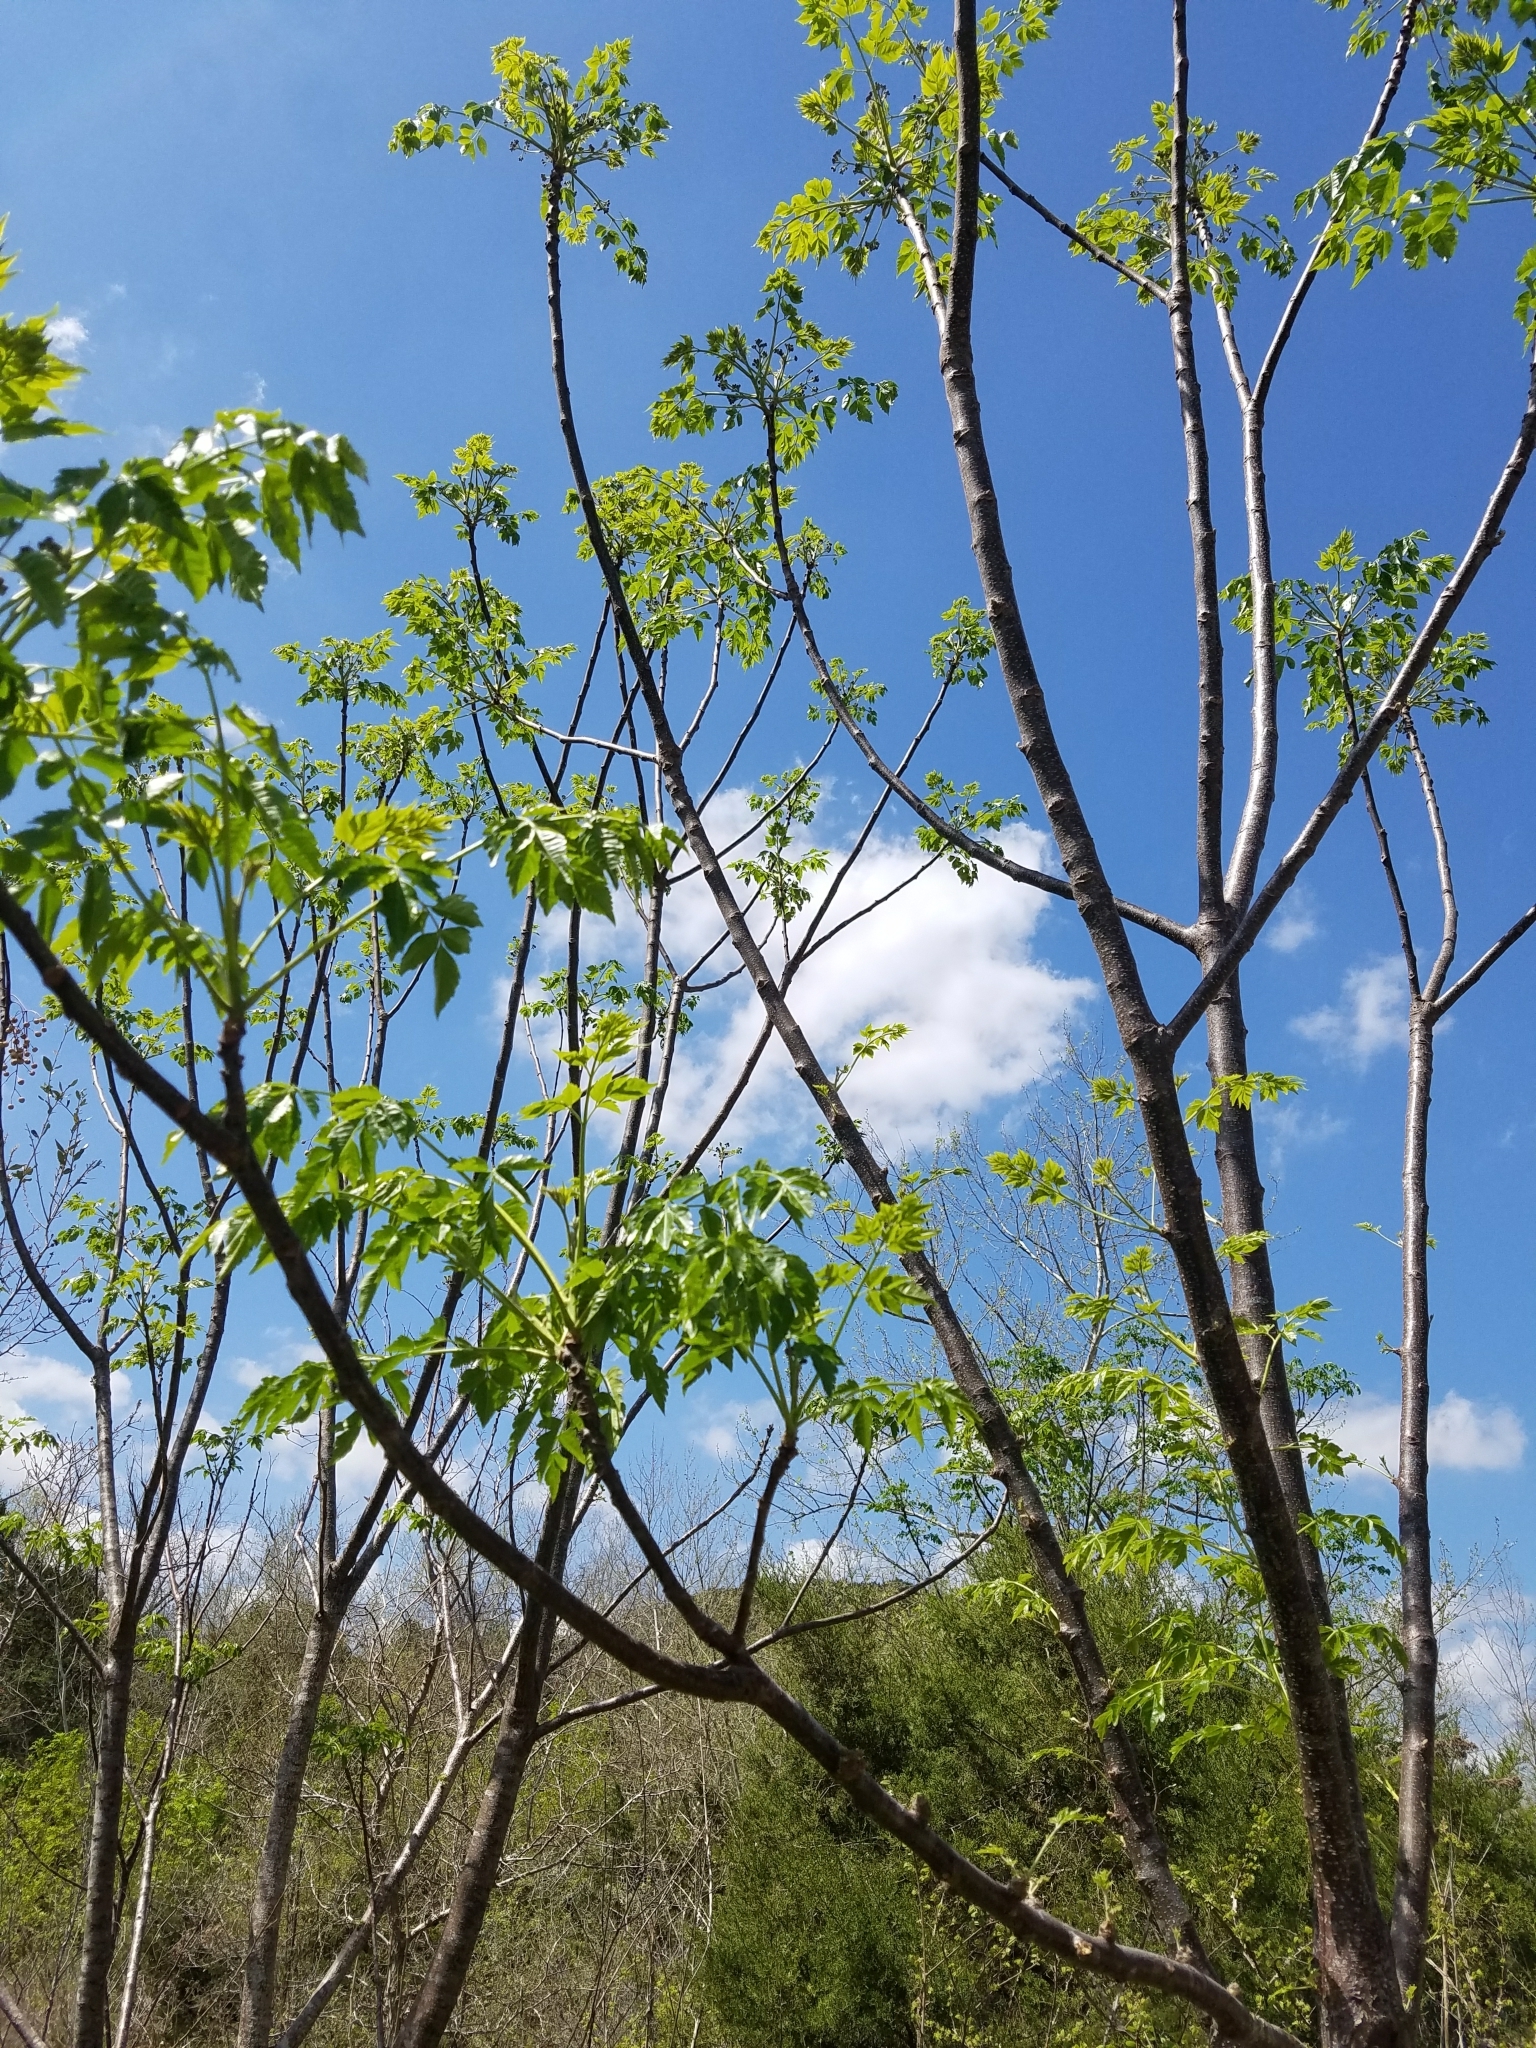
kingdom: Plantae
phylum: Tracheophyta
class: Magnoliopsida
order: Sapindales
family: Meliaceae
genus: Melia
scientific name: Melia azedarach
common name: Chinaberrytree
